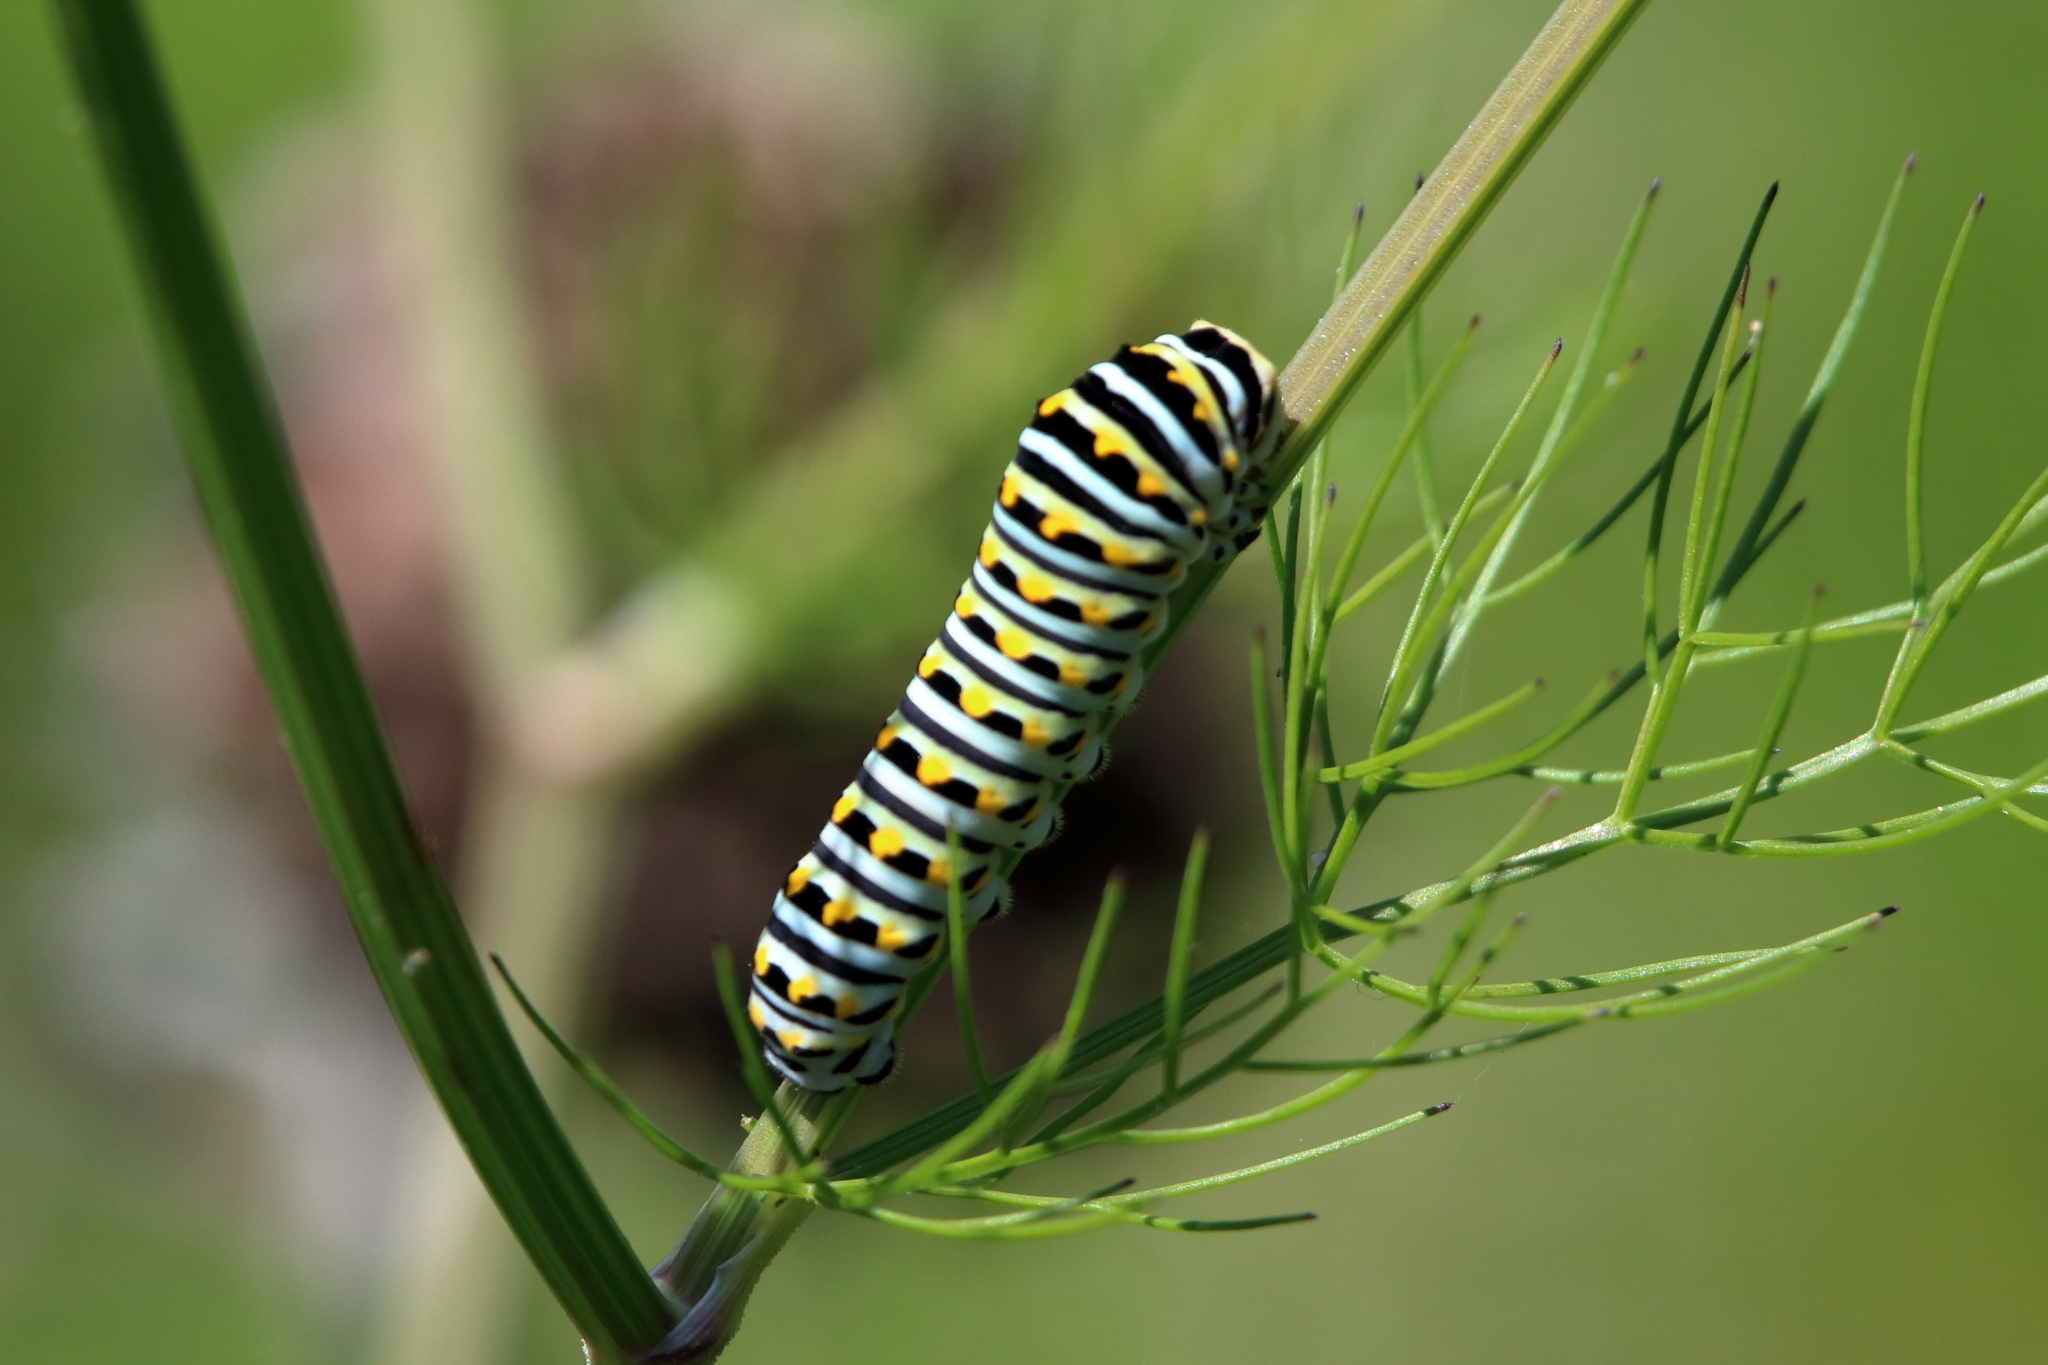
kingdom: Animalia
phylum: Arthropoda
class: Insecta
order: Lepidoptera
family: Papilionidae
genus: Papilio
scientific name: Papilio polyxenes
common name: Black swallowtail
